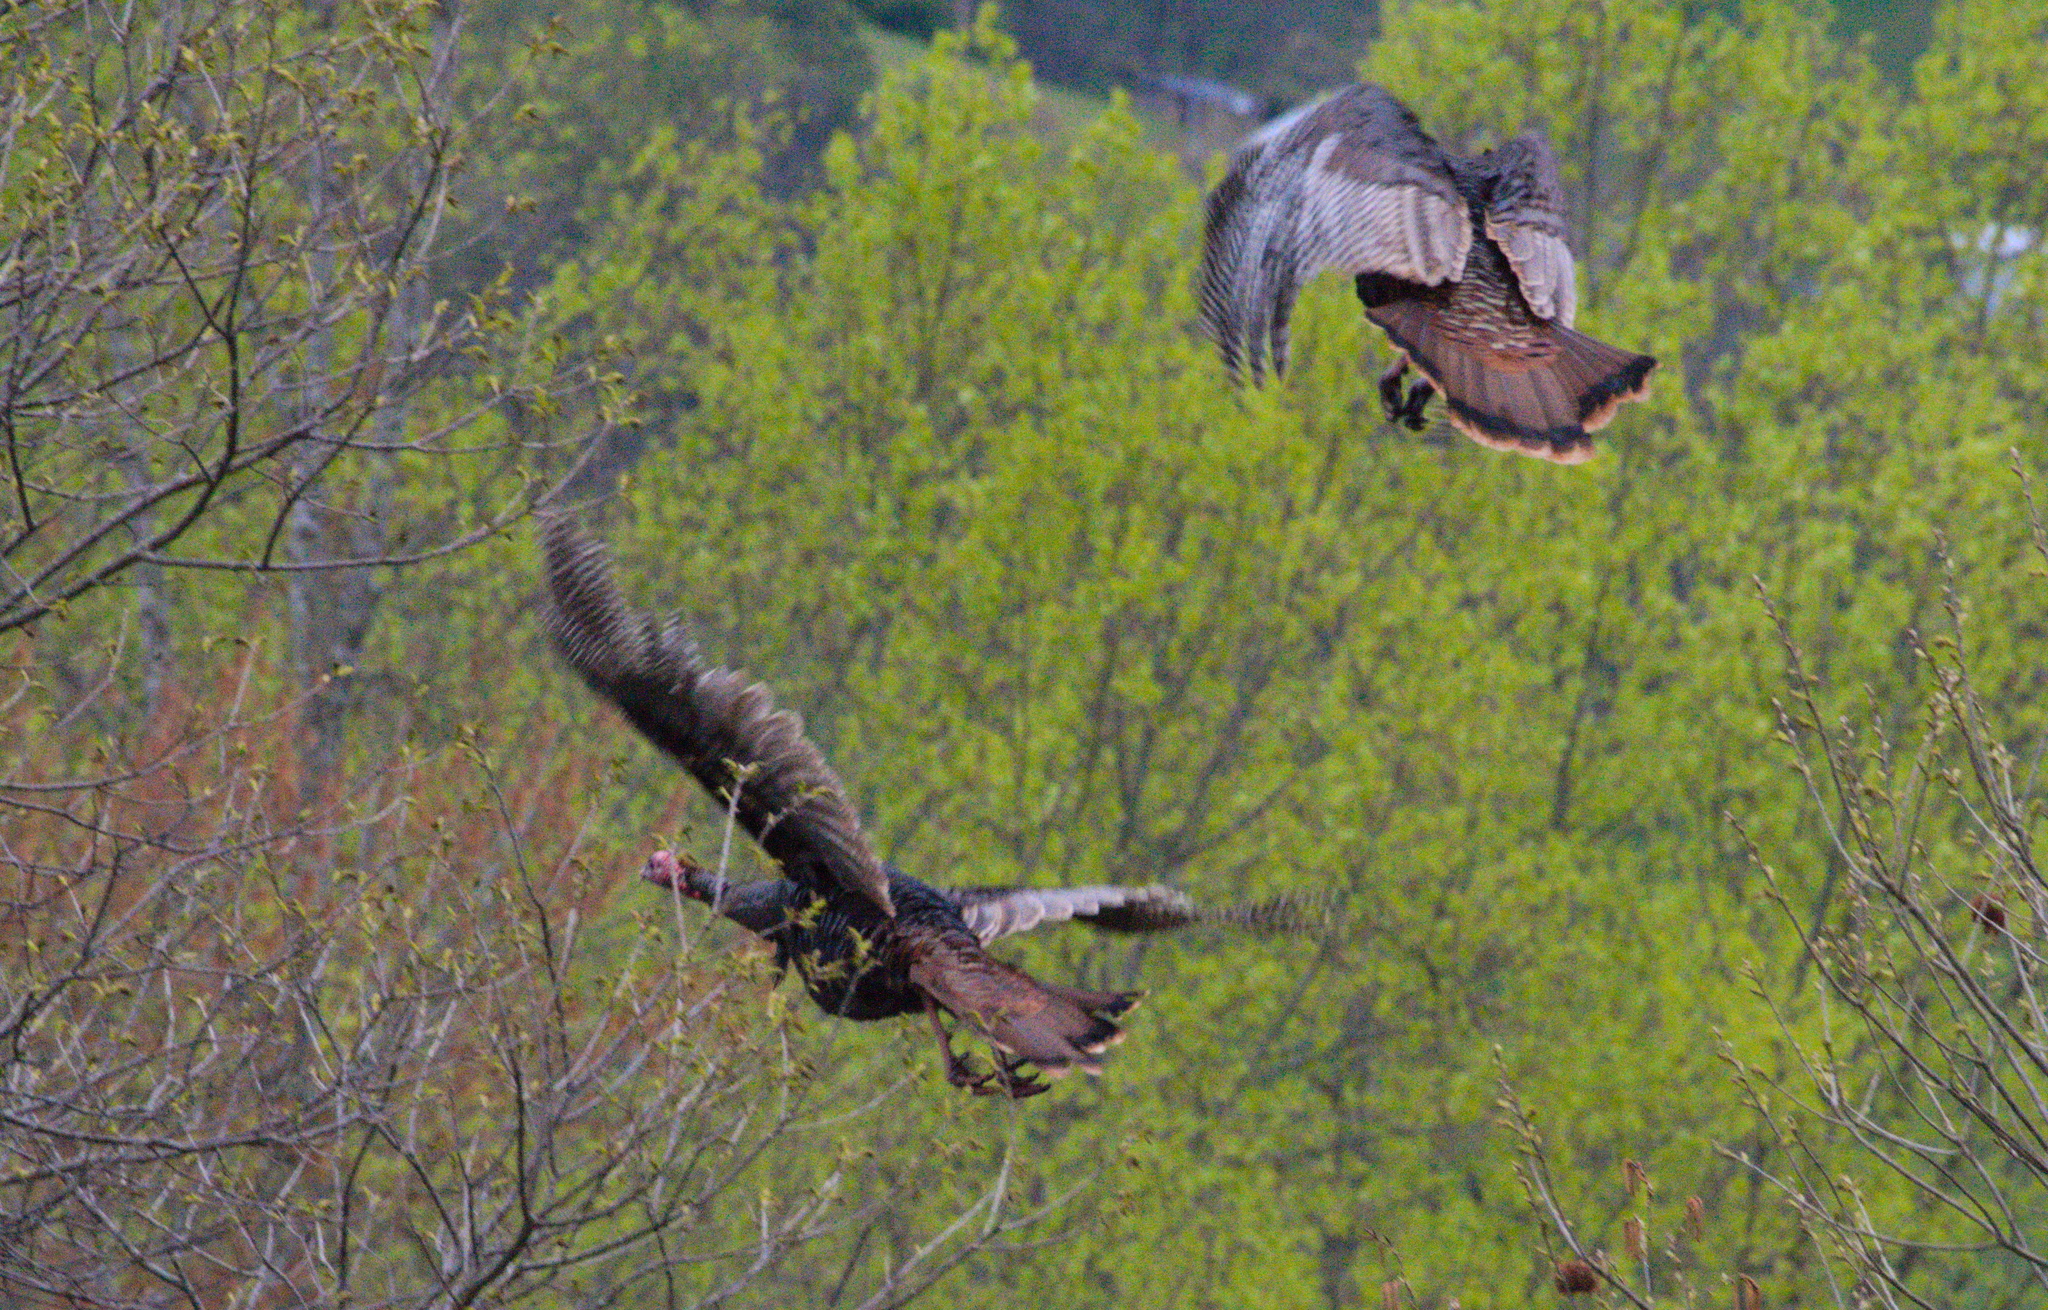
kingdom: Animalia
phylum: Chordata
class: Aves
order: Galliformes
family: Phasianidae
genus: Meleagris
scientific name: Meleagris gallopavo
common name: Wild turkey
